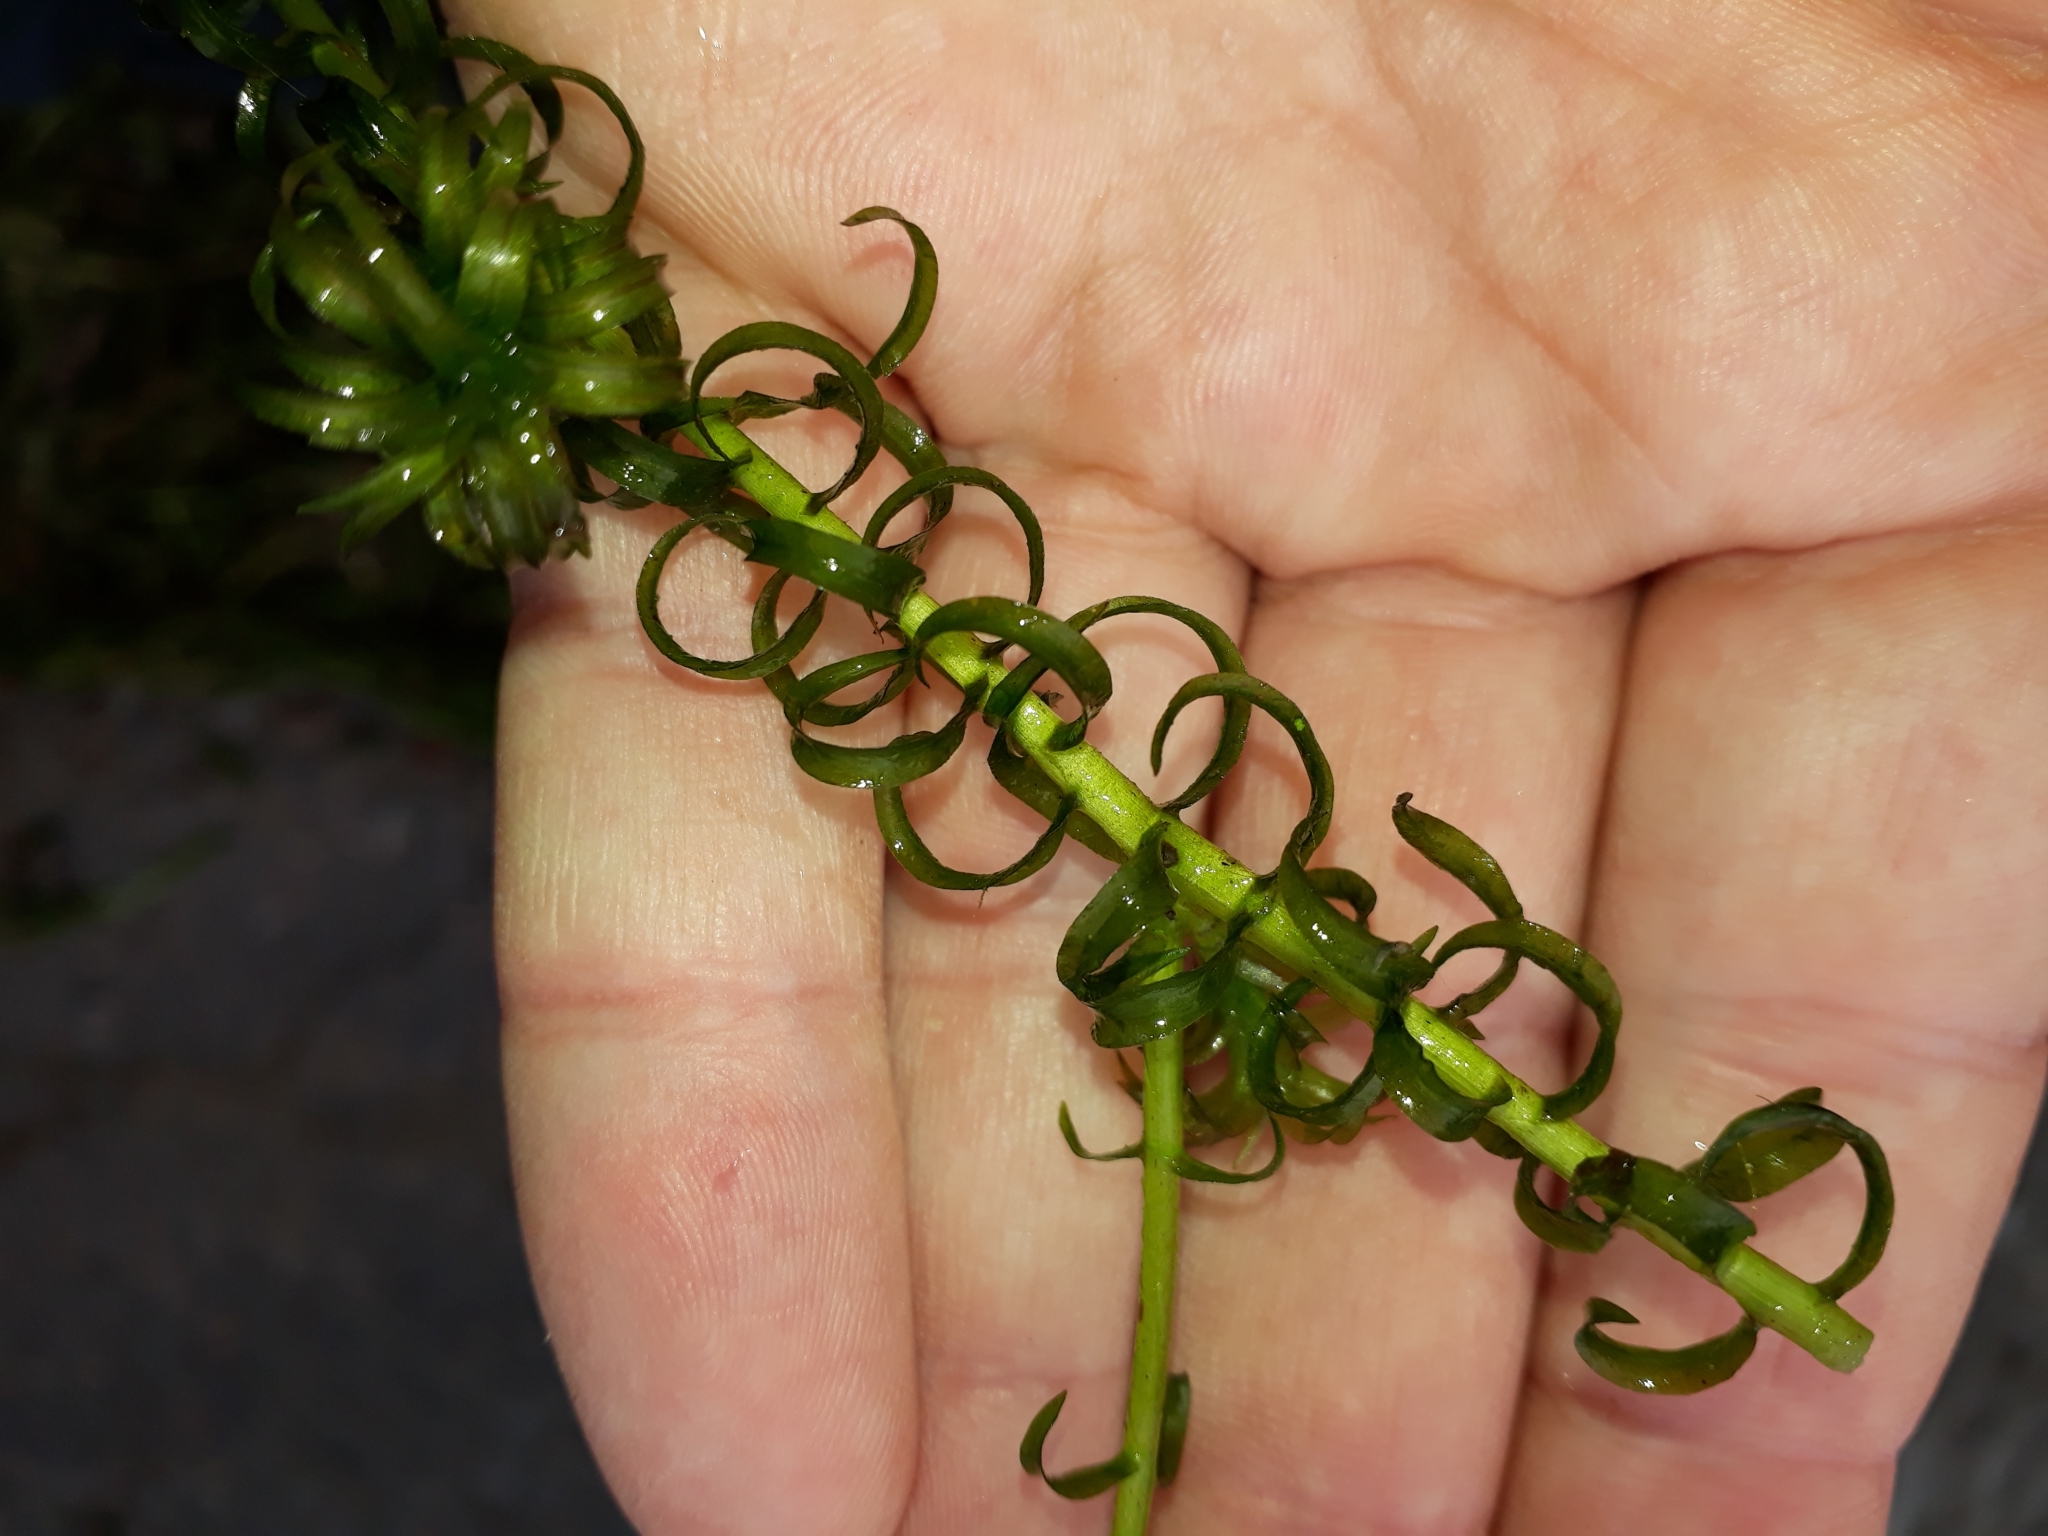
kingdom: Plantae
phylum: Tracheophyta
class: Liliopsida
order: Alismatales
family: Hydrocharitaceae
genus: Lagarosiphon
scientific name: Lagarosiphon major
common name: Curly waterweed
